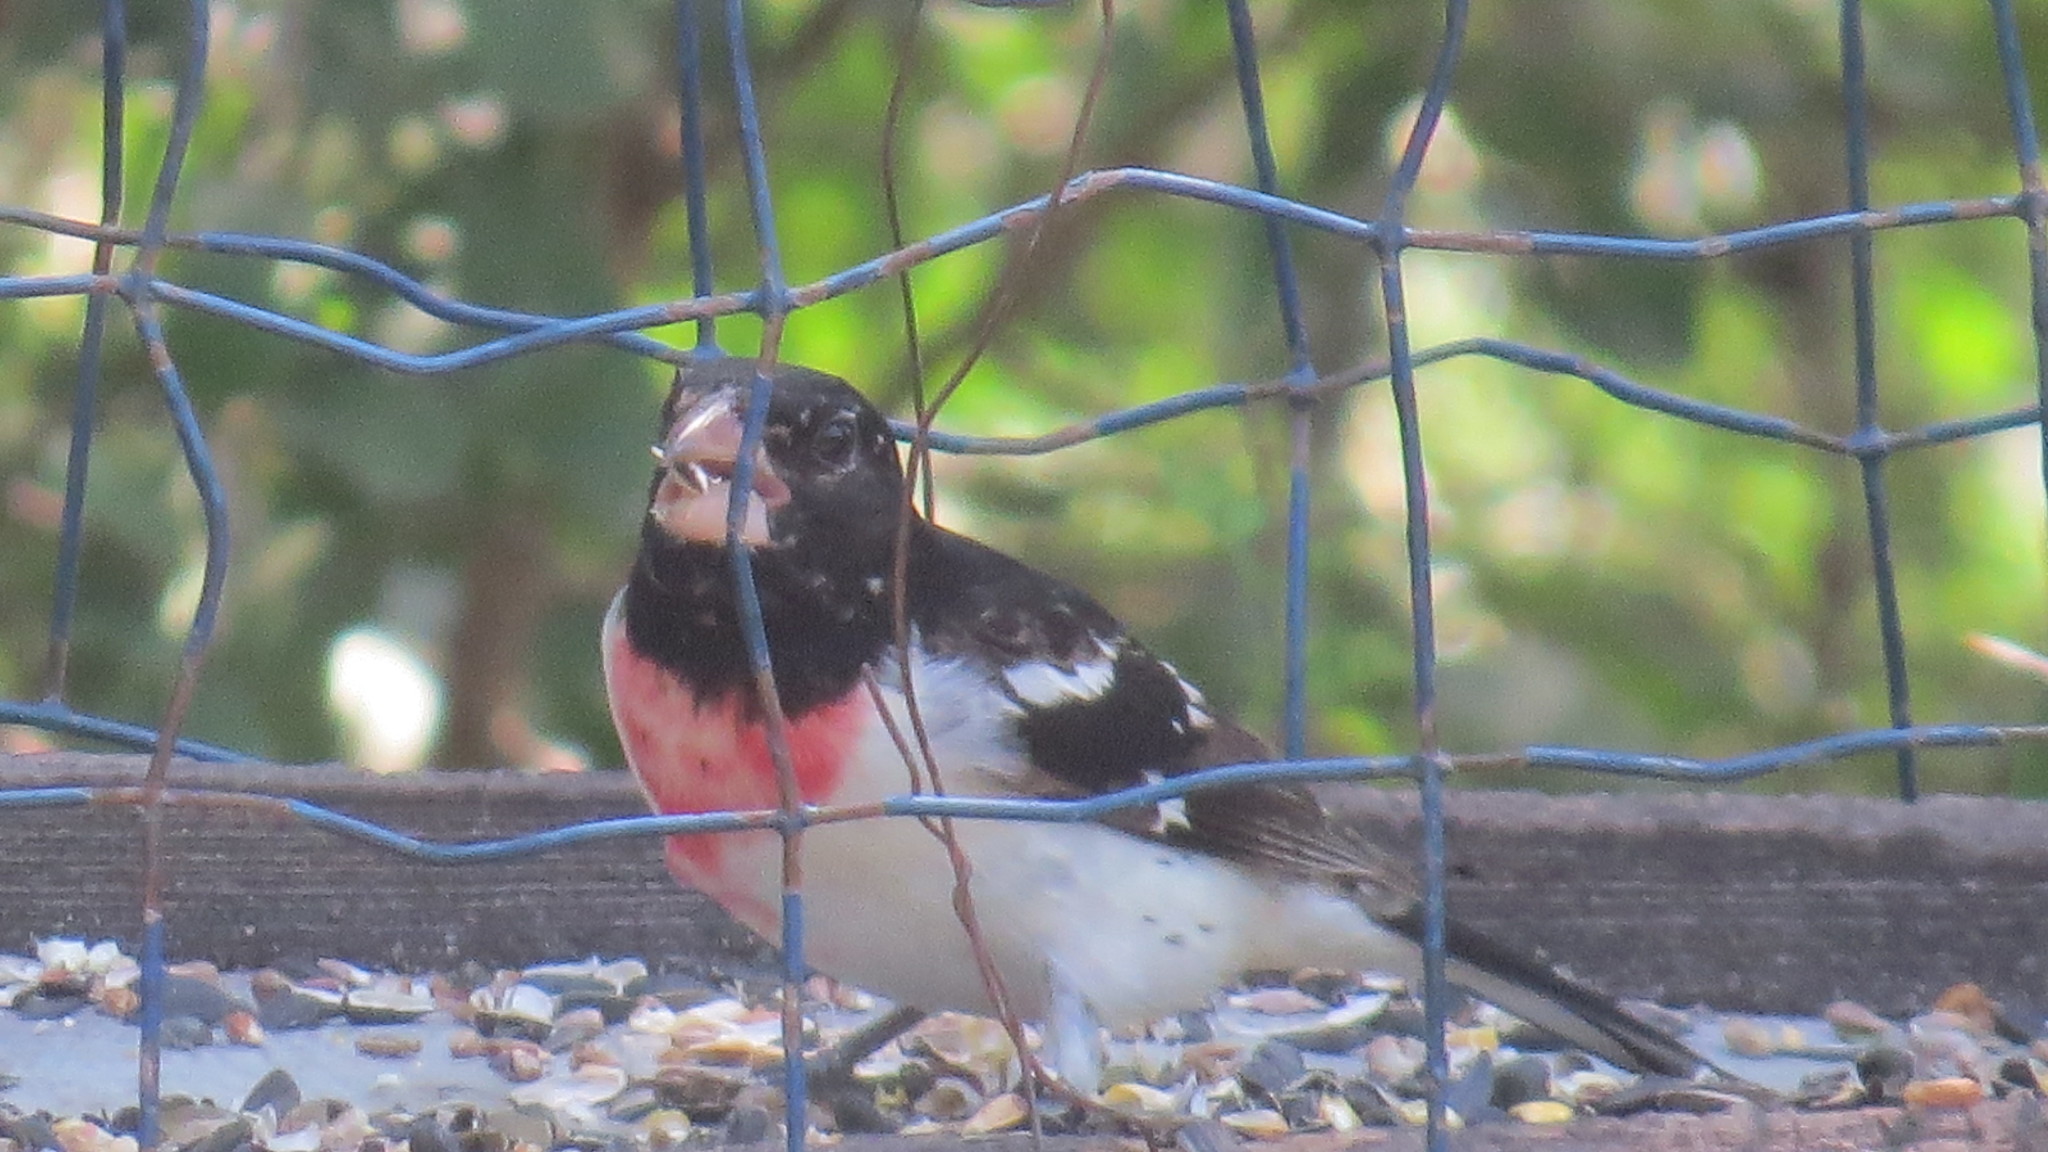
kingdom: Animalia
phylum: Chordata
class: Aves
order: Passeriformes
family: Cardinalidae
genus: Pheucticus
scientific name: Pheucticus ludovicianus
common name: Rose-breasted grosbeak
